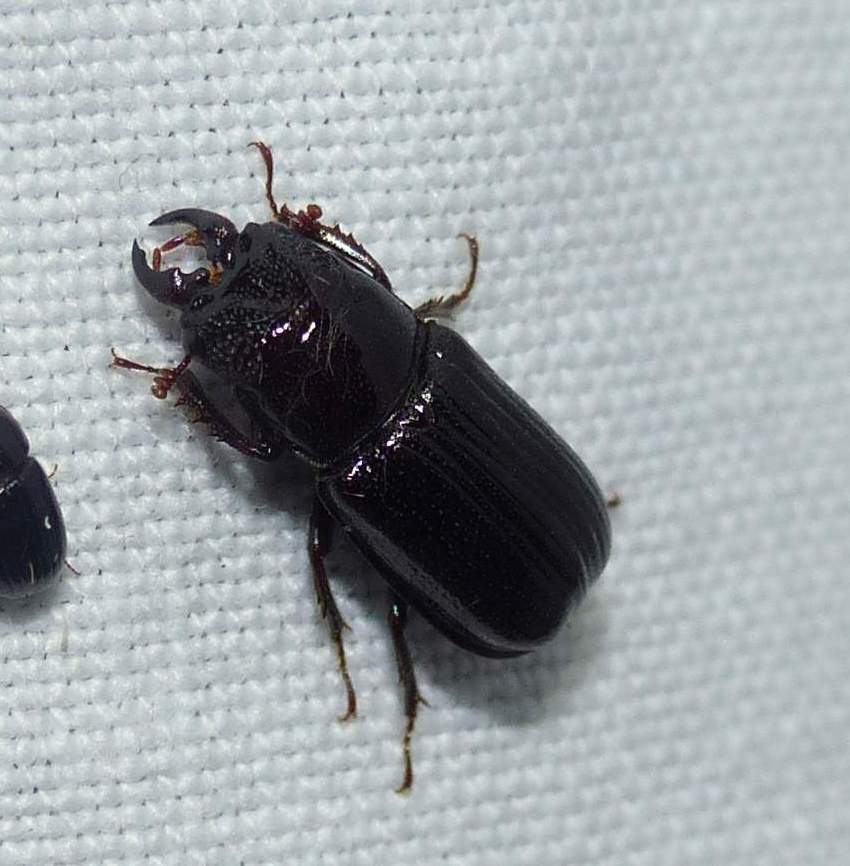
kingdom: Animalia
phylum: Arthropoda
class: Insecta
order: Coleoptera
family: Lucanidae
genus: Ceruchus
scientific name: Ceruchus piceus
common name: Red-rot decay stag beetle
